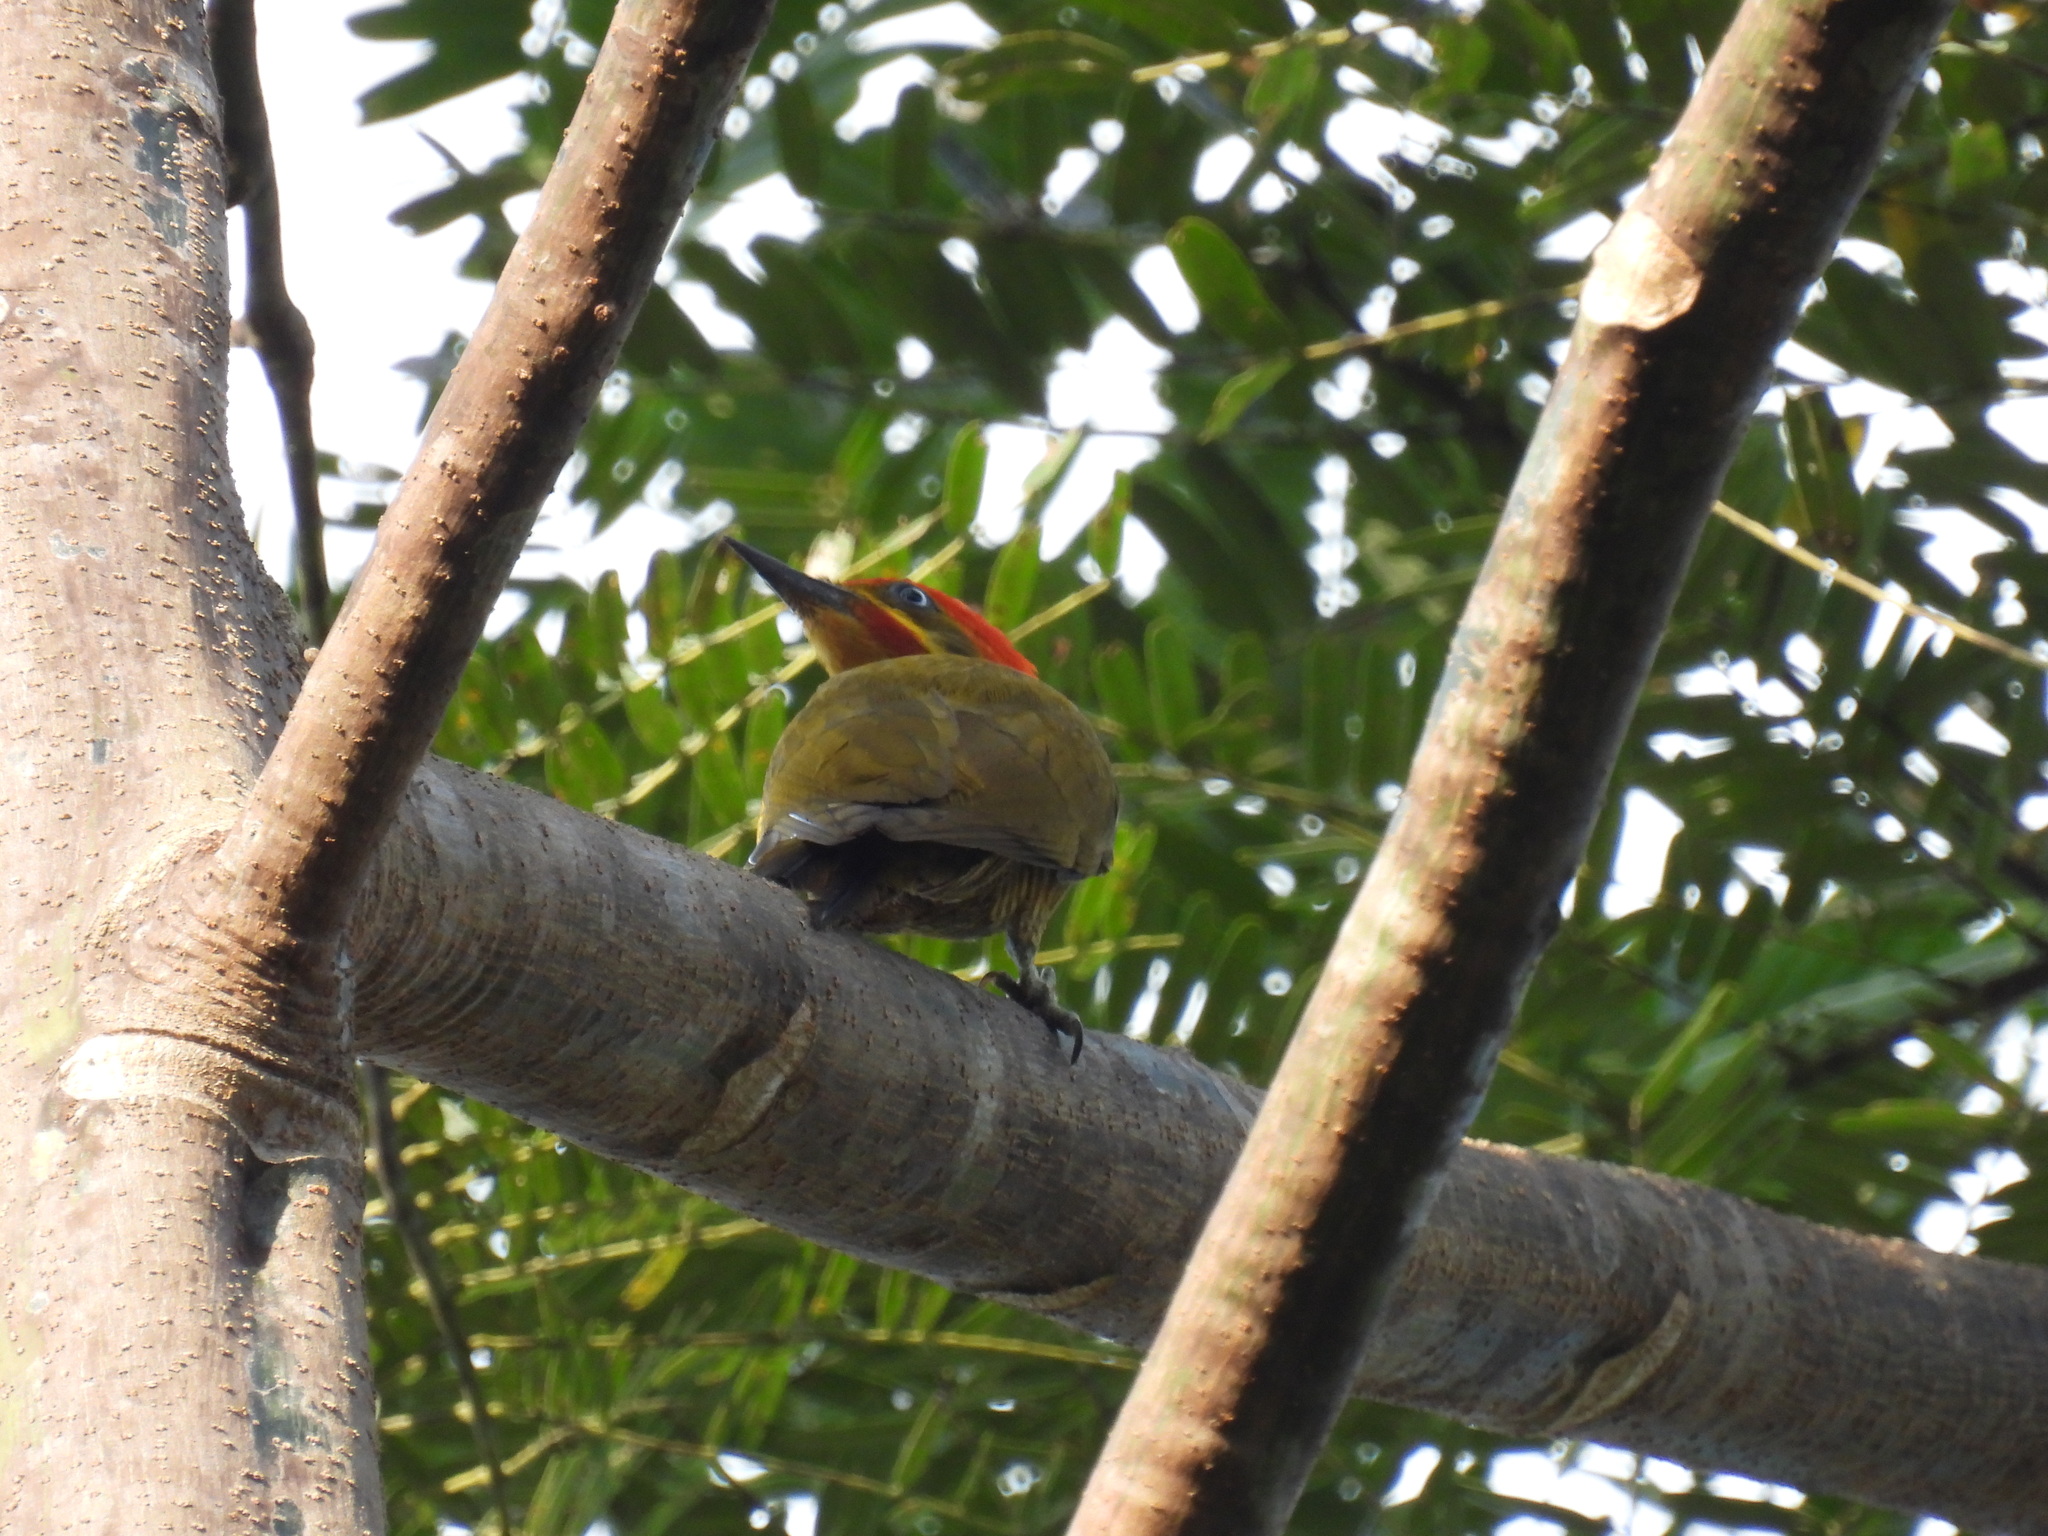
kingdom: Animalia
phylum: Chordata
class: Aves
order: Piciformes
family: Picidae
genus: Piculus
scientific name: Piculus chrysochloros
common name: Golden-green woodpecker
